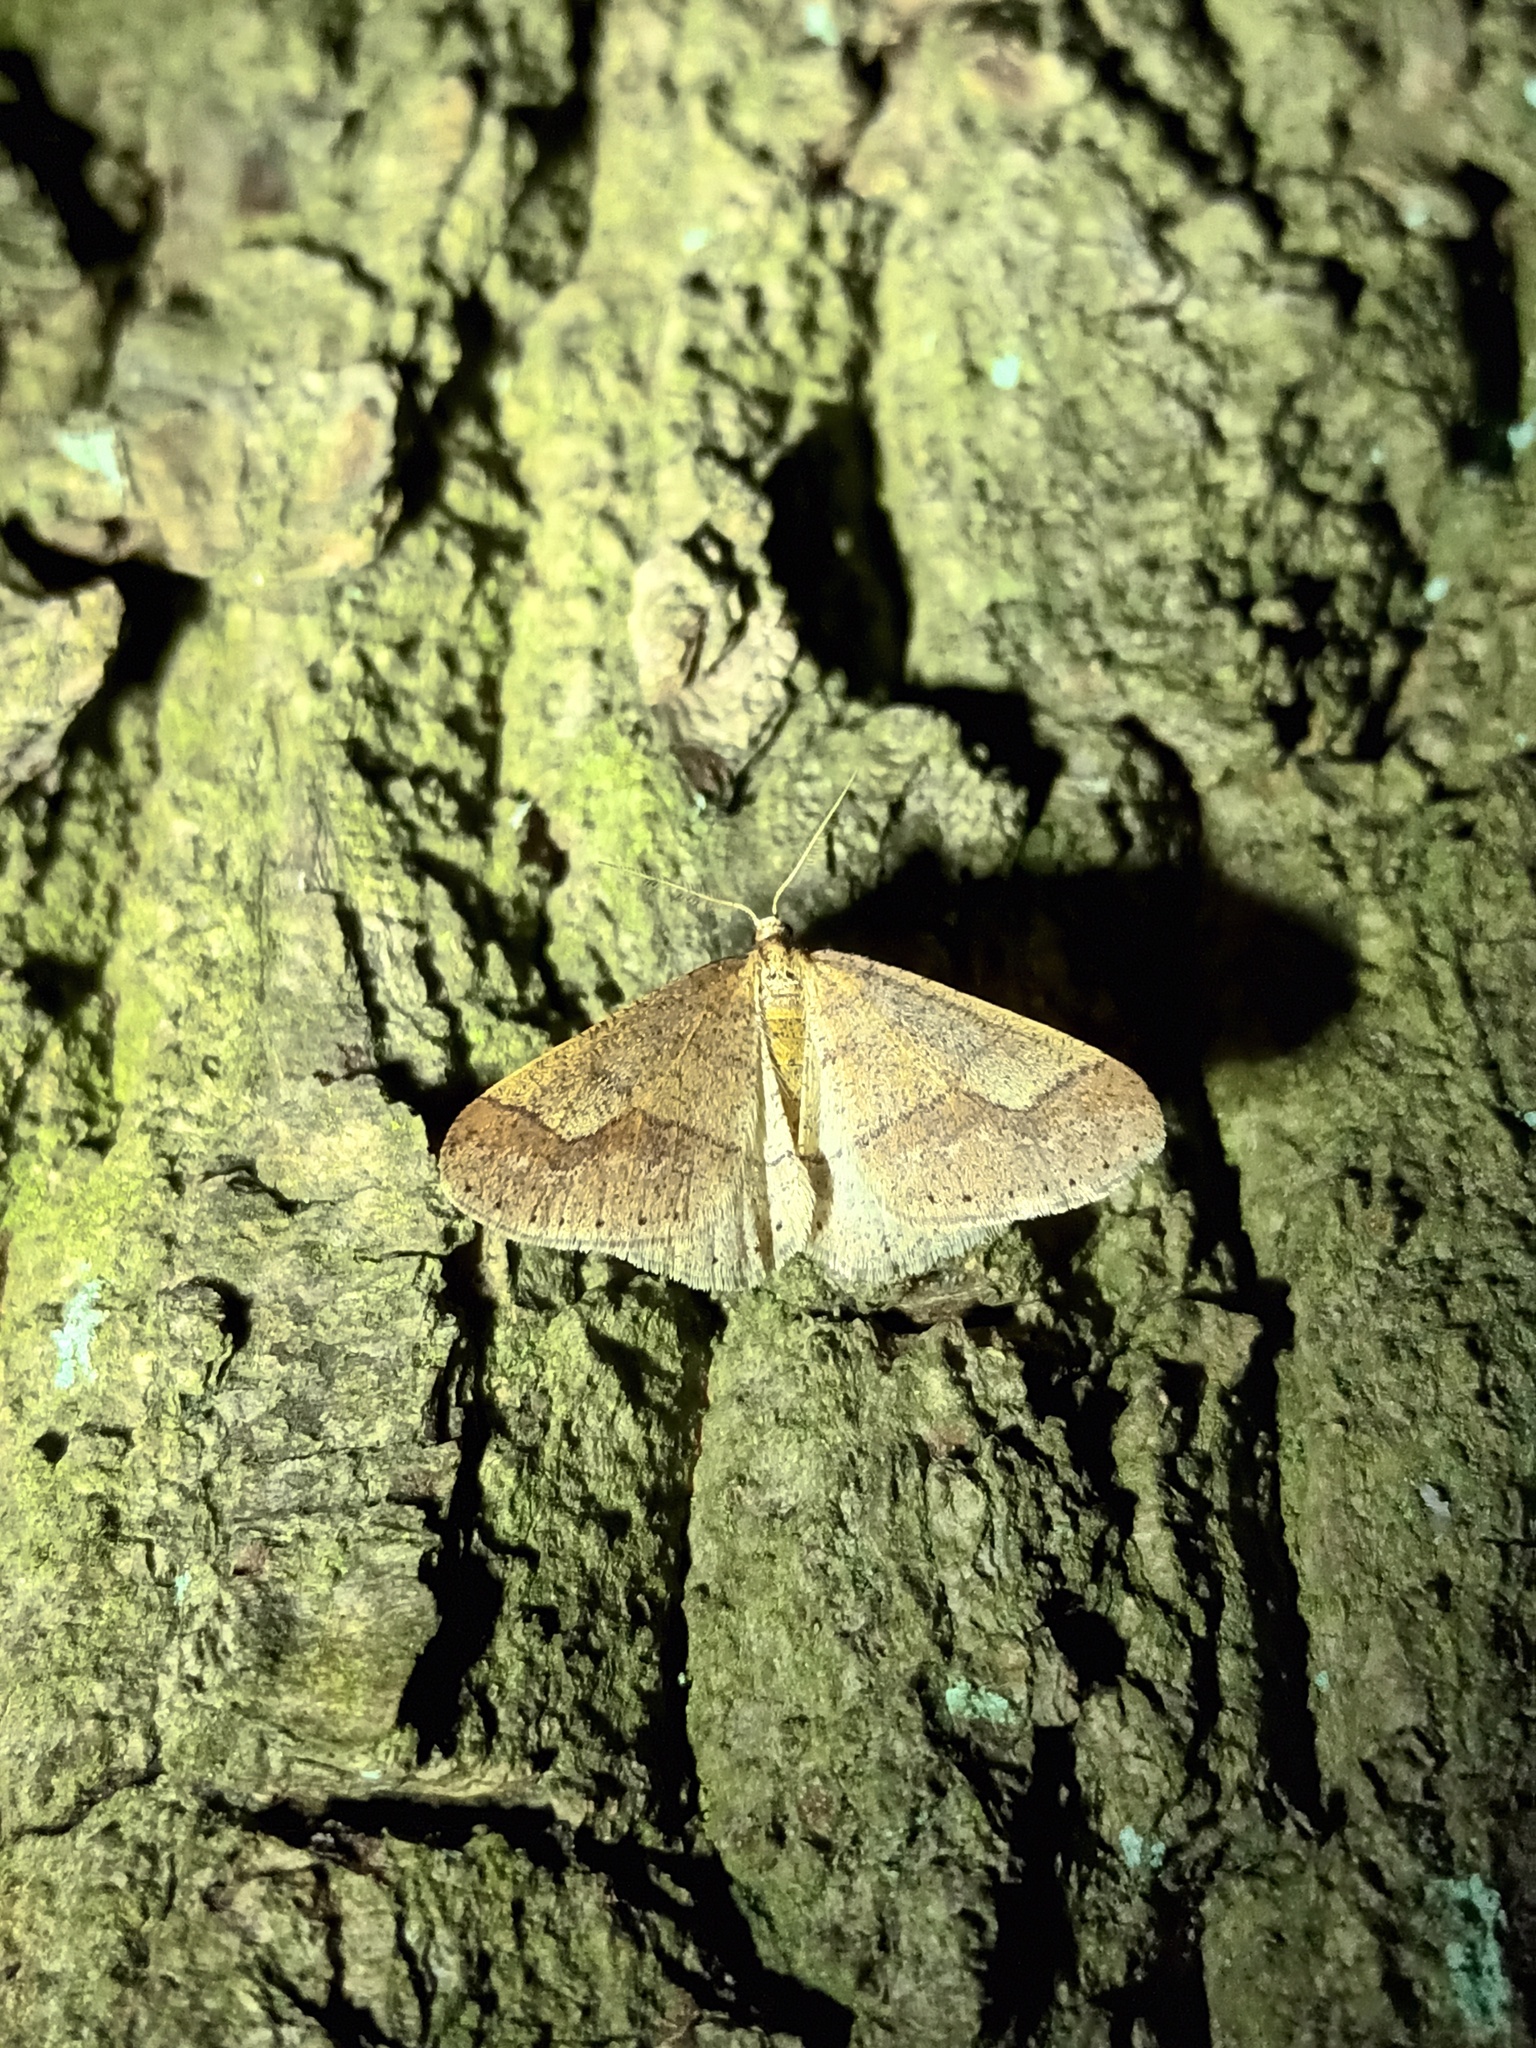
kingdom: Animalia
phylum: Arthropoda
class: Insecta
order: Lepidoptera
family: Geometridae
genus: Agriopis
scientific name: Agriopis marginaria
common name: Dotted border
